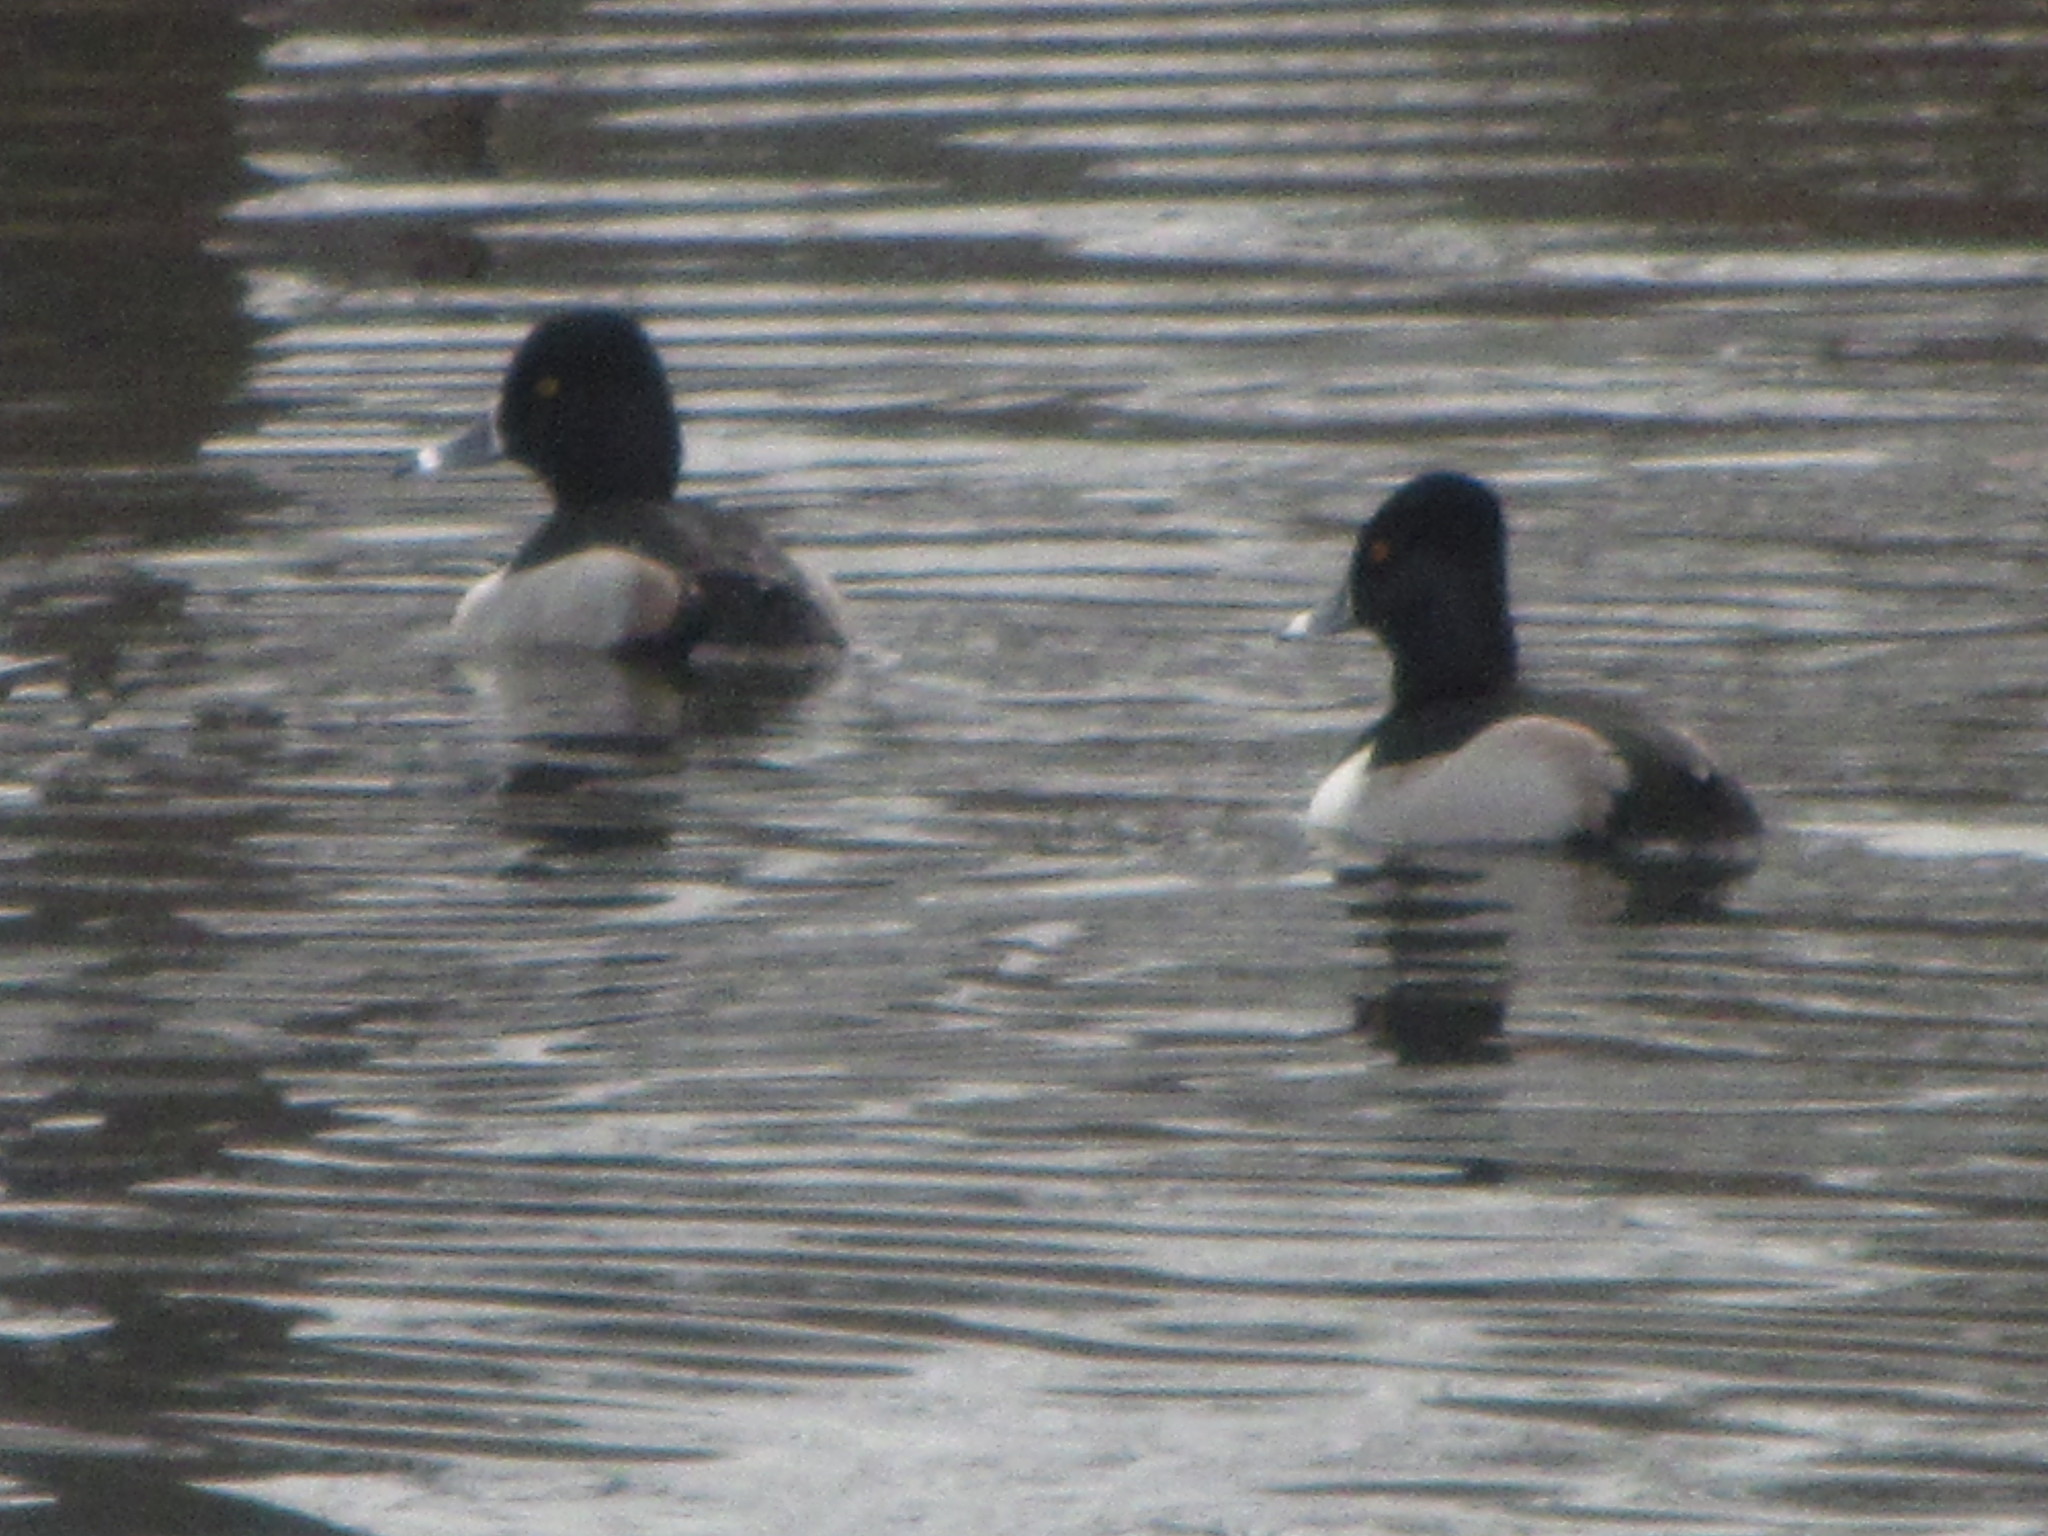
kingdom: Animalia
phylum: Chordata
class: Aves
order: Anseriformes
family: Anatidae
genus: Aythya
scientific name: Aythya collaris
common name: Ring-necked duck
